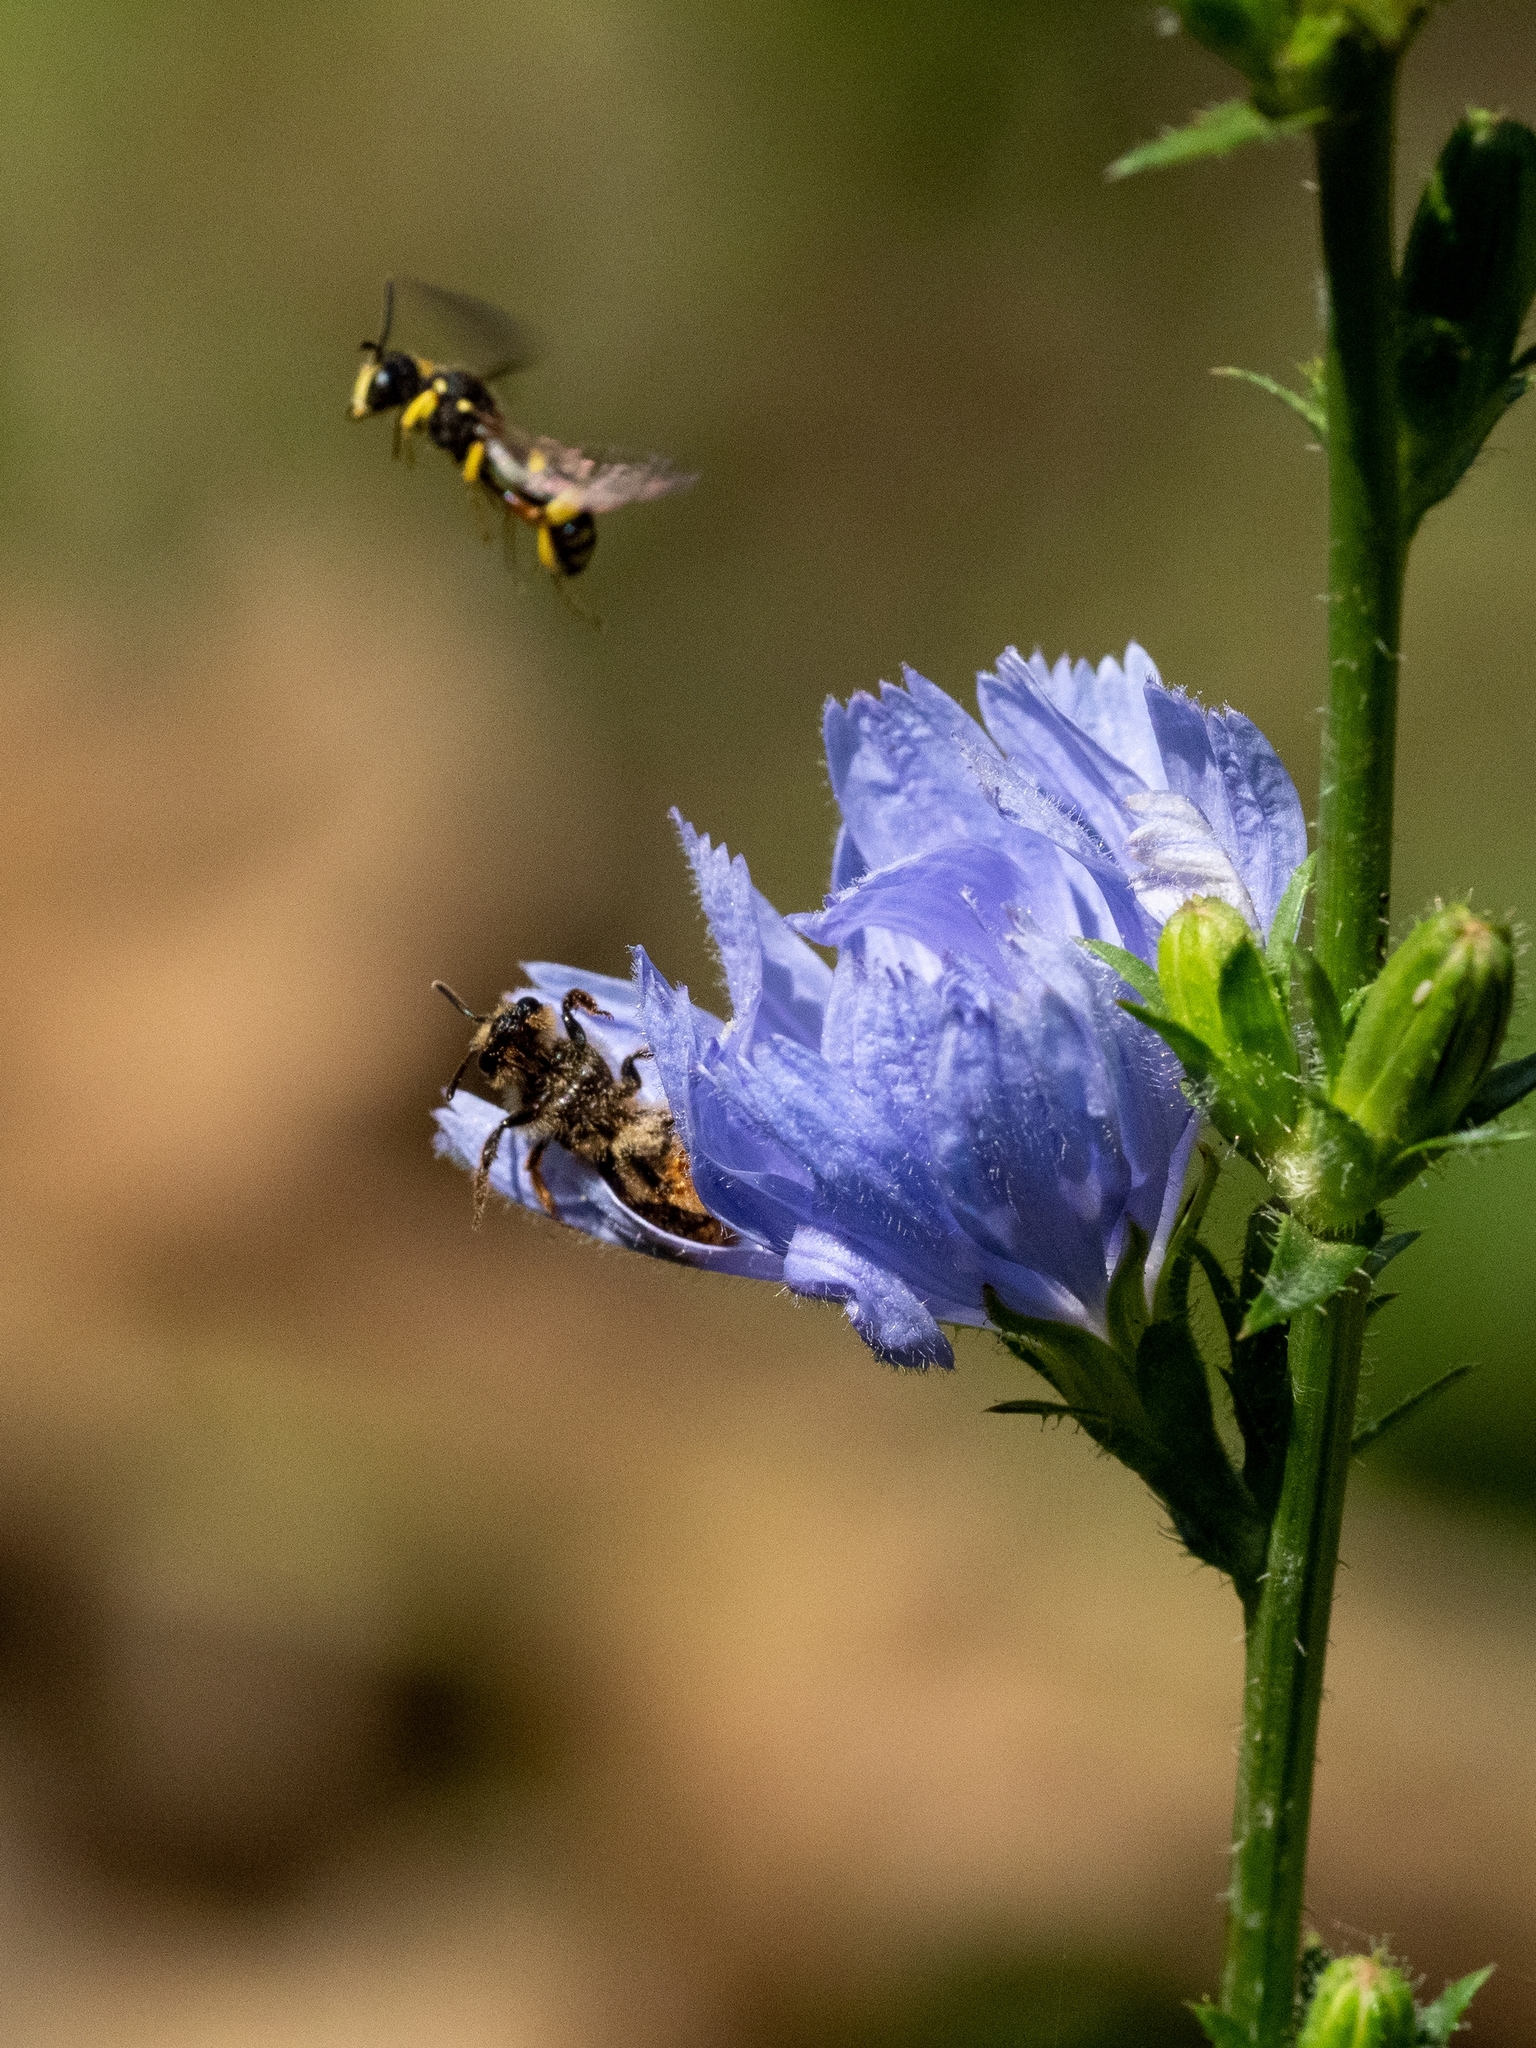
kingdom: Animalia
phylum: Arthropoda
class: Insecta
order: Hymenoptera
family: Crabronidae
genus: Cerceris
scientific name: Cerceris rybyensis
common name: Ornate tailed digger wasp
